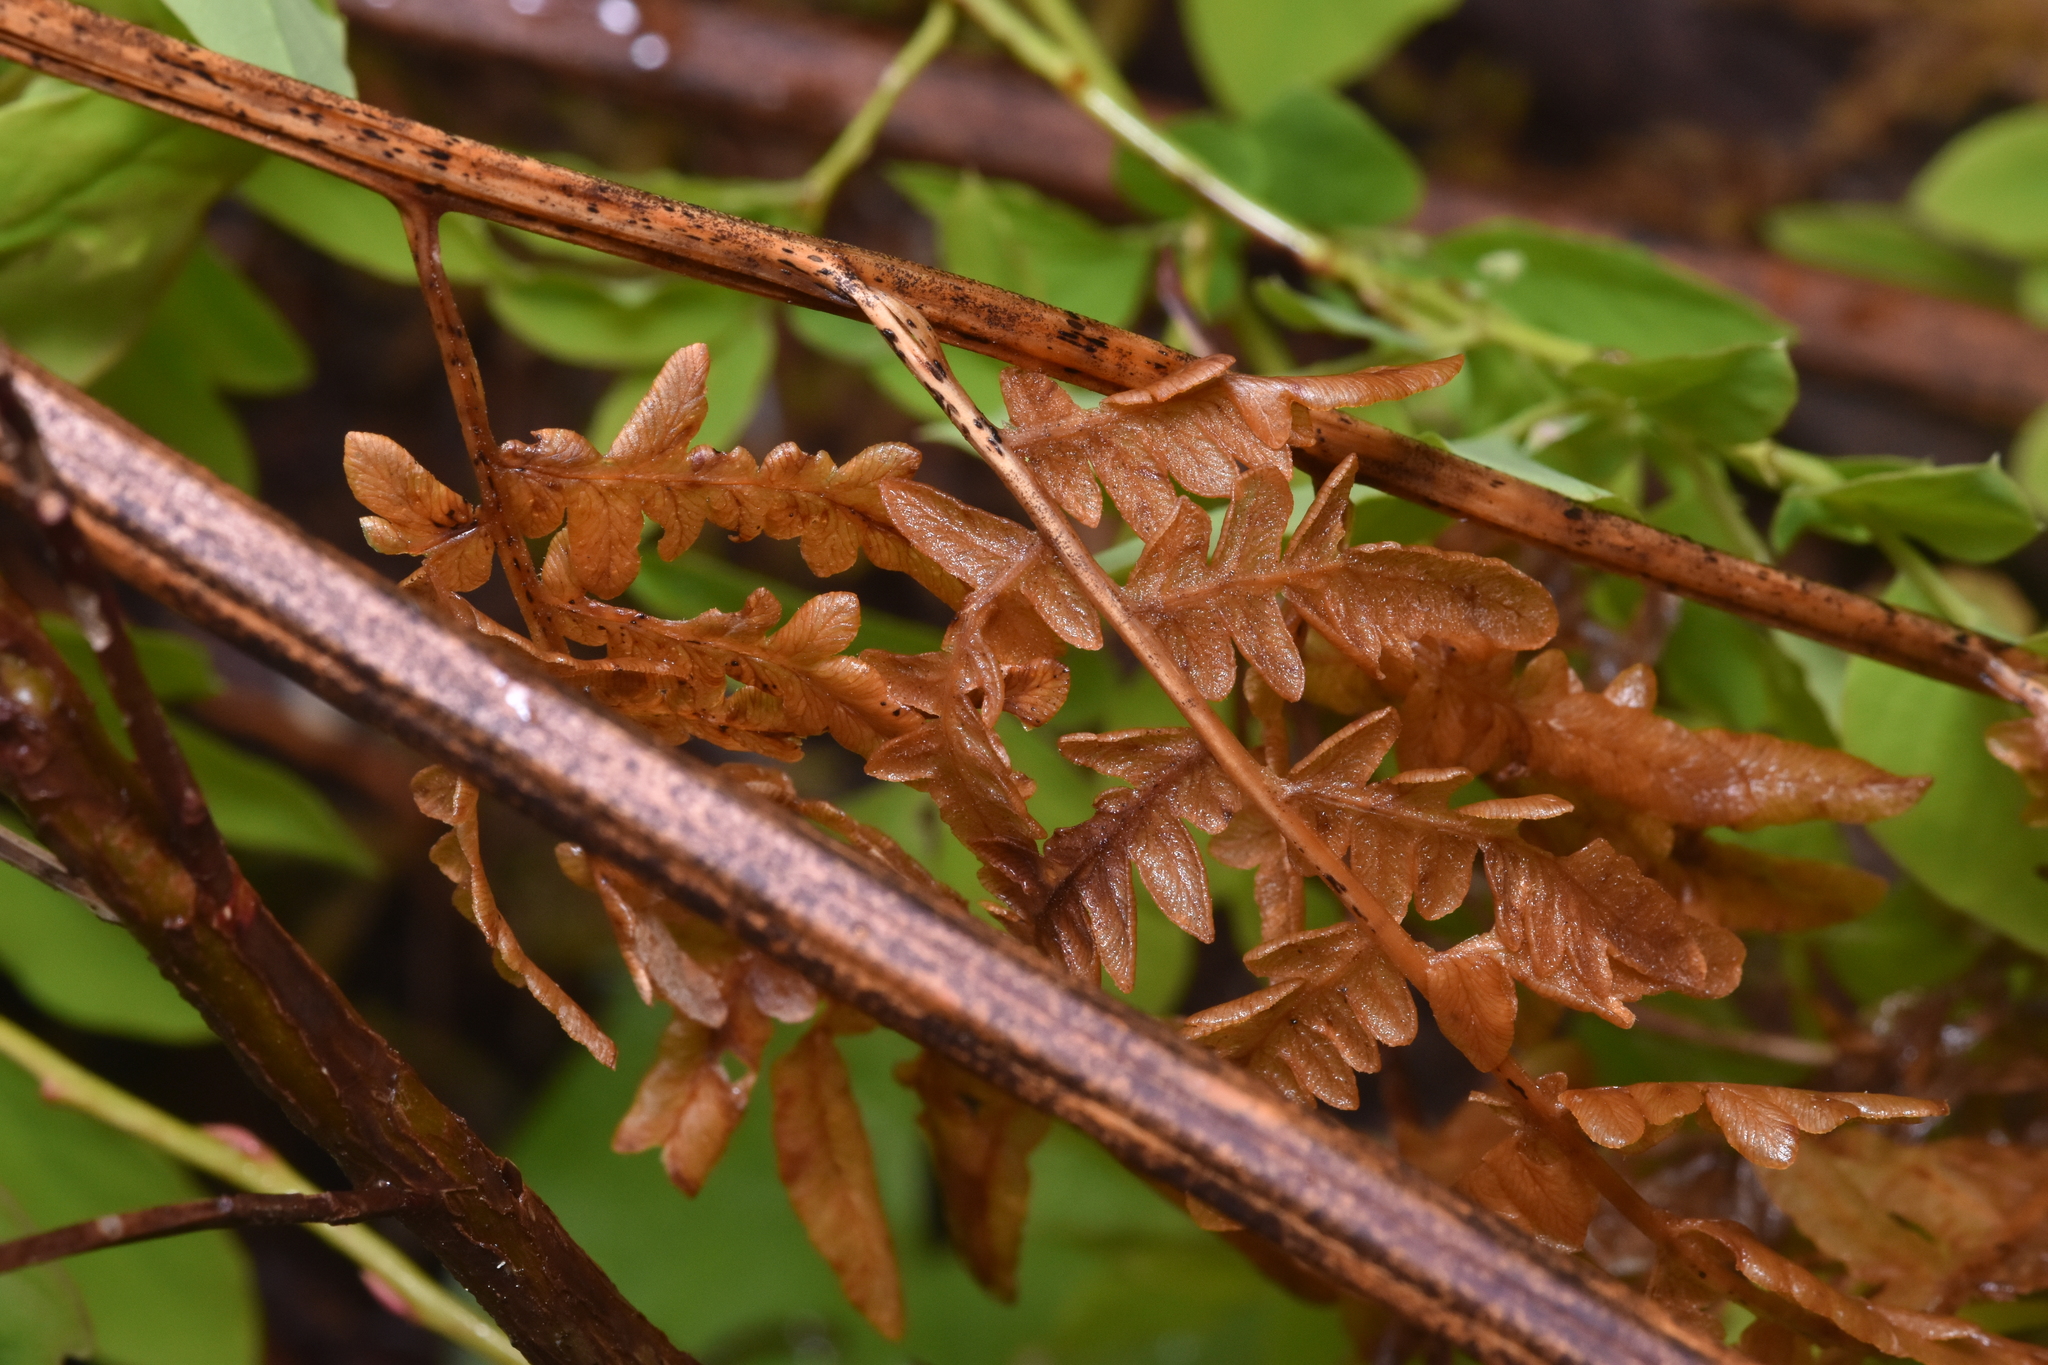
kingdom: Plantae
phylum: Tracheophyta
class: Polypodiopsida
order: Polypodiales
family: Dennstaedtiaceae
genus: Pteridium
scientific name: Pteridium aquilinum
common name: Bracken
